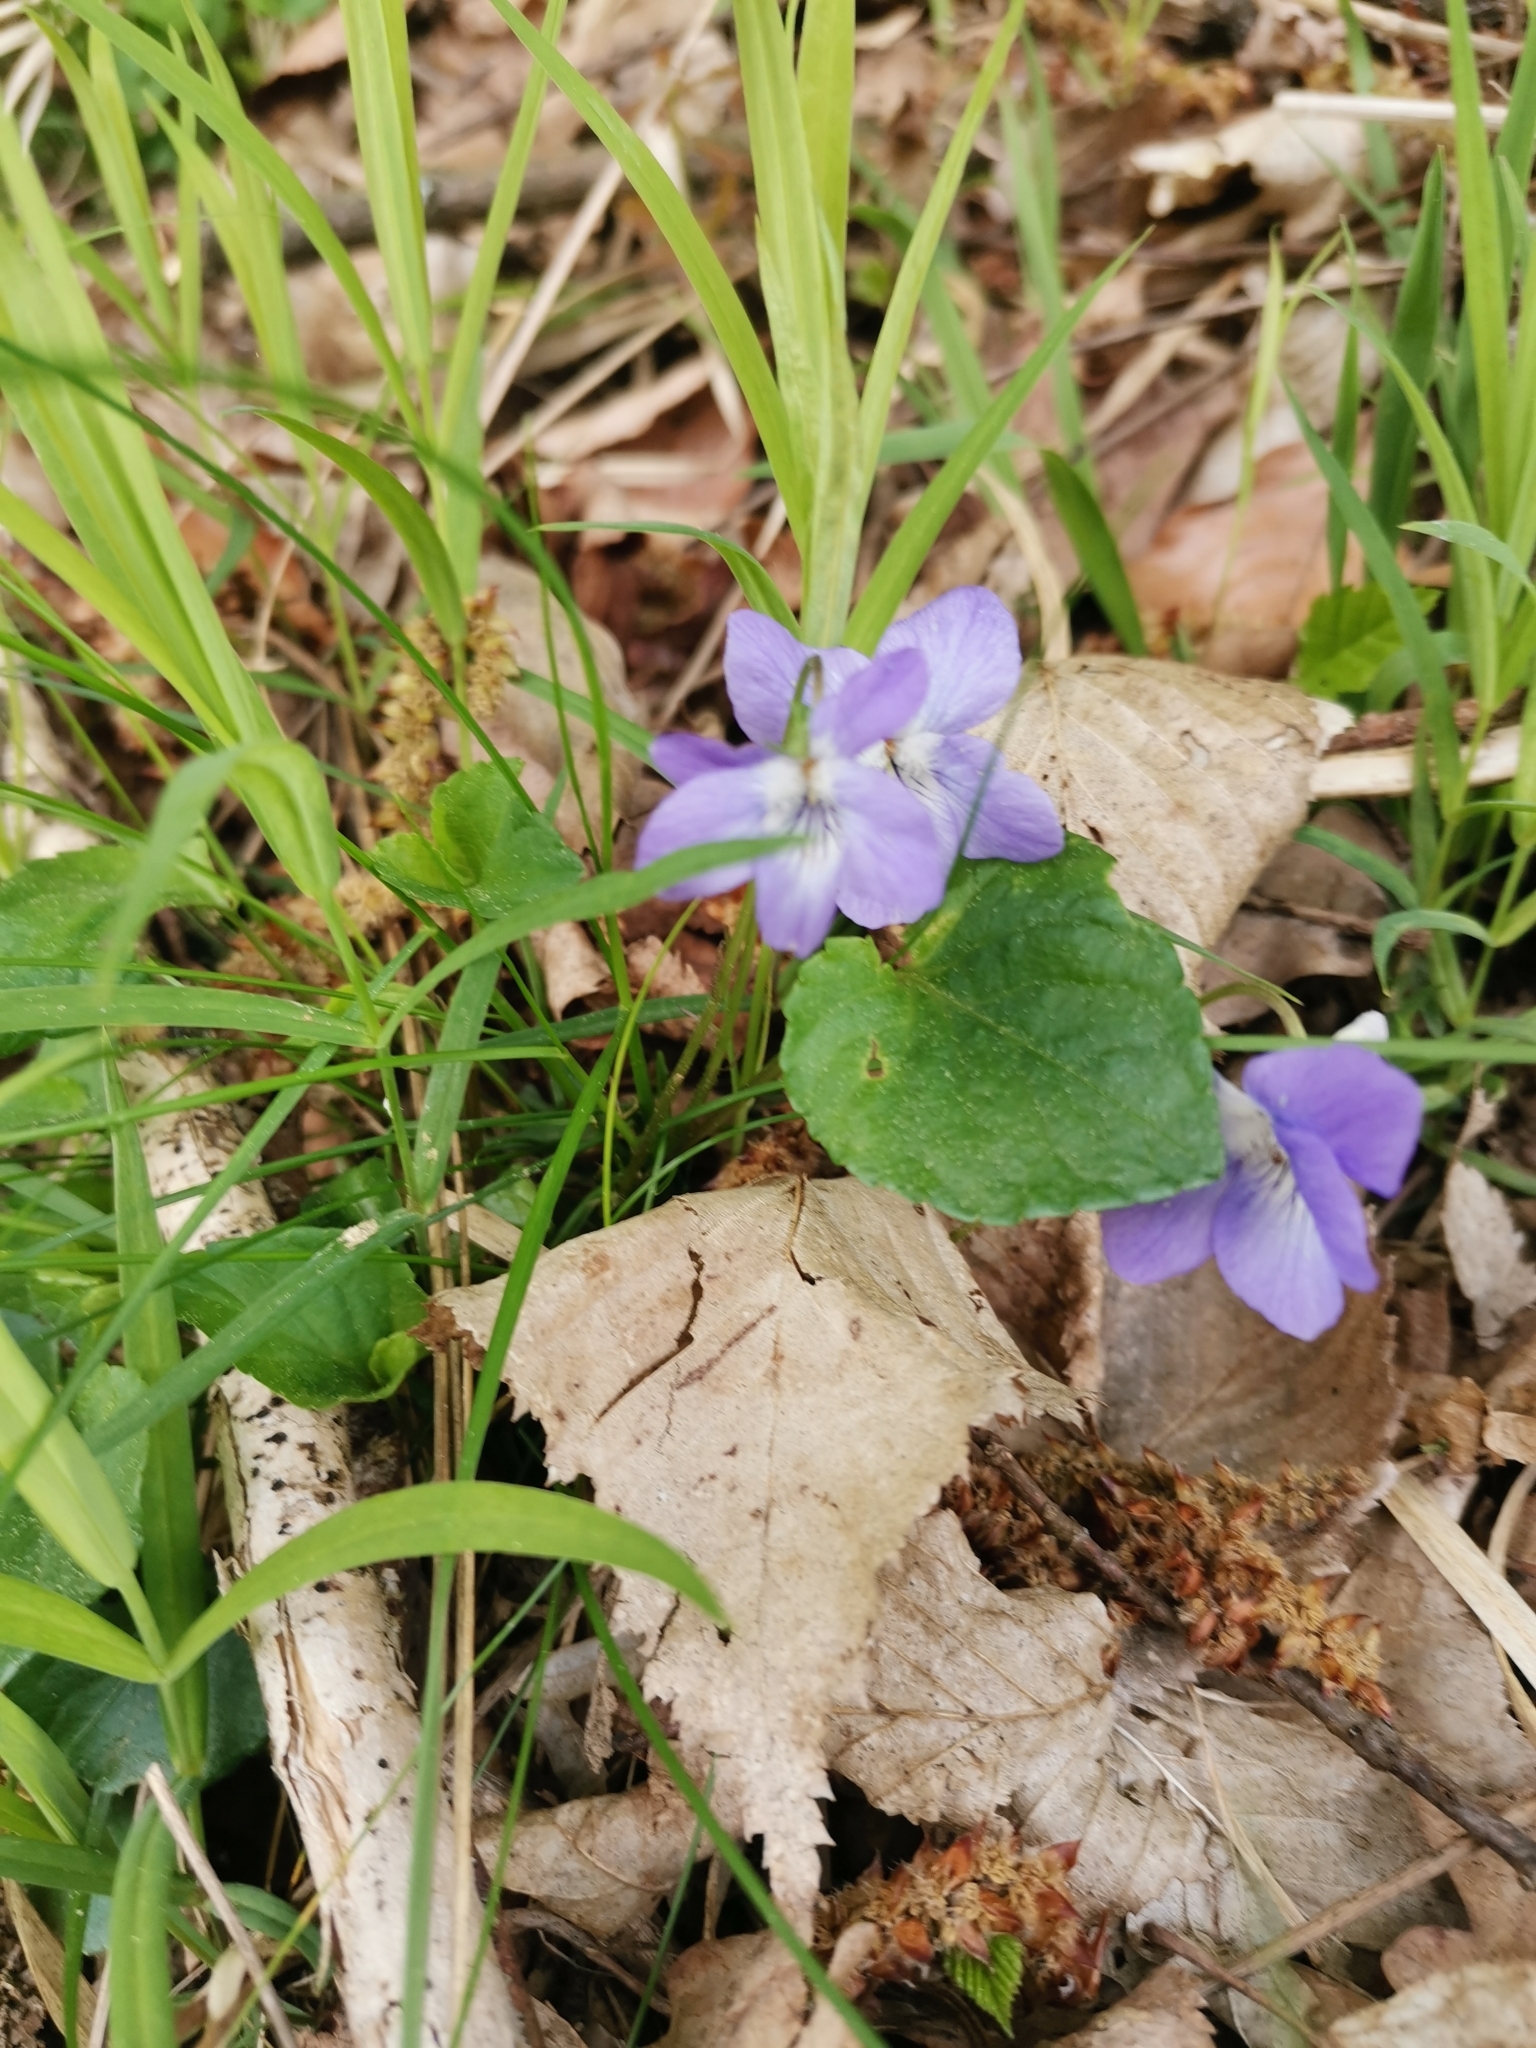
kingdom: Plantae
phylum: Tracheophyta
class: Magnoliopsida
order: Malpighiales
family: Violaceae
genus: Viola
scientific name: Viola riviniana
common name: Common dog-violet
